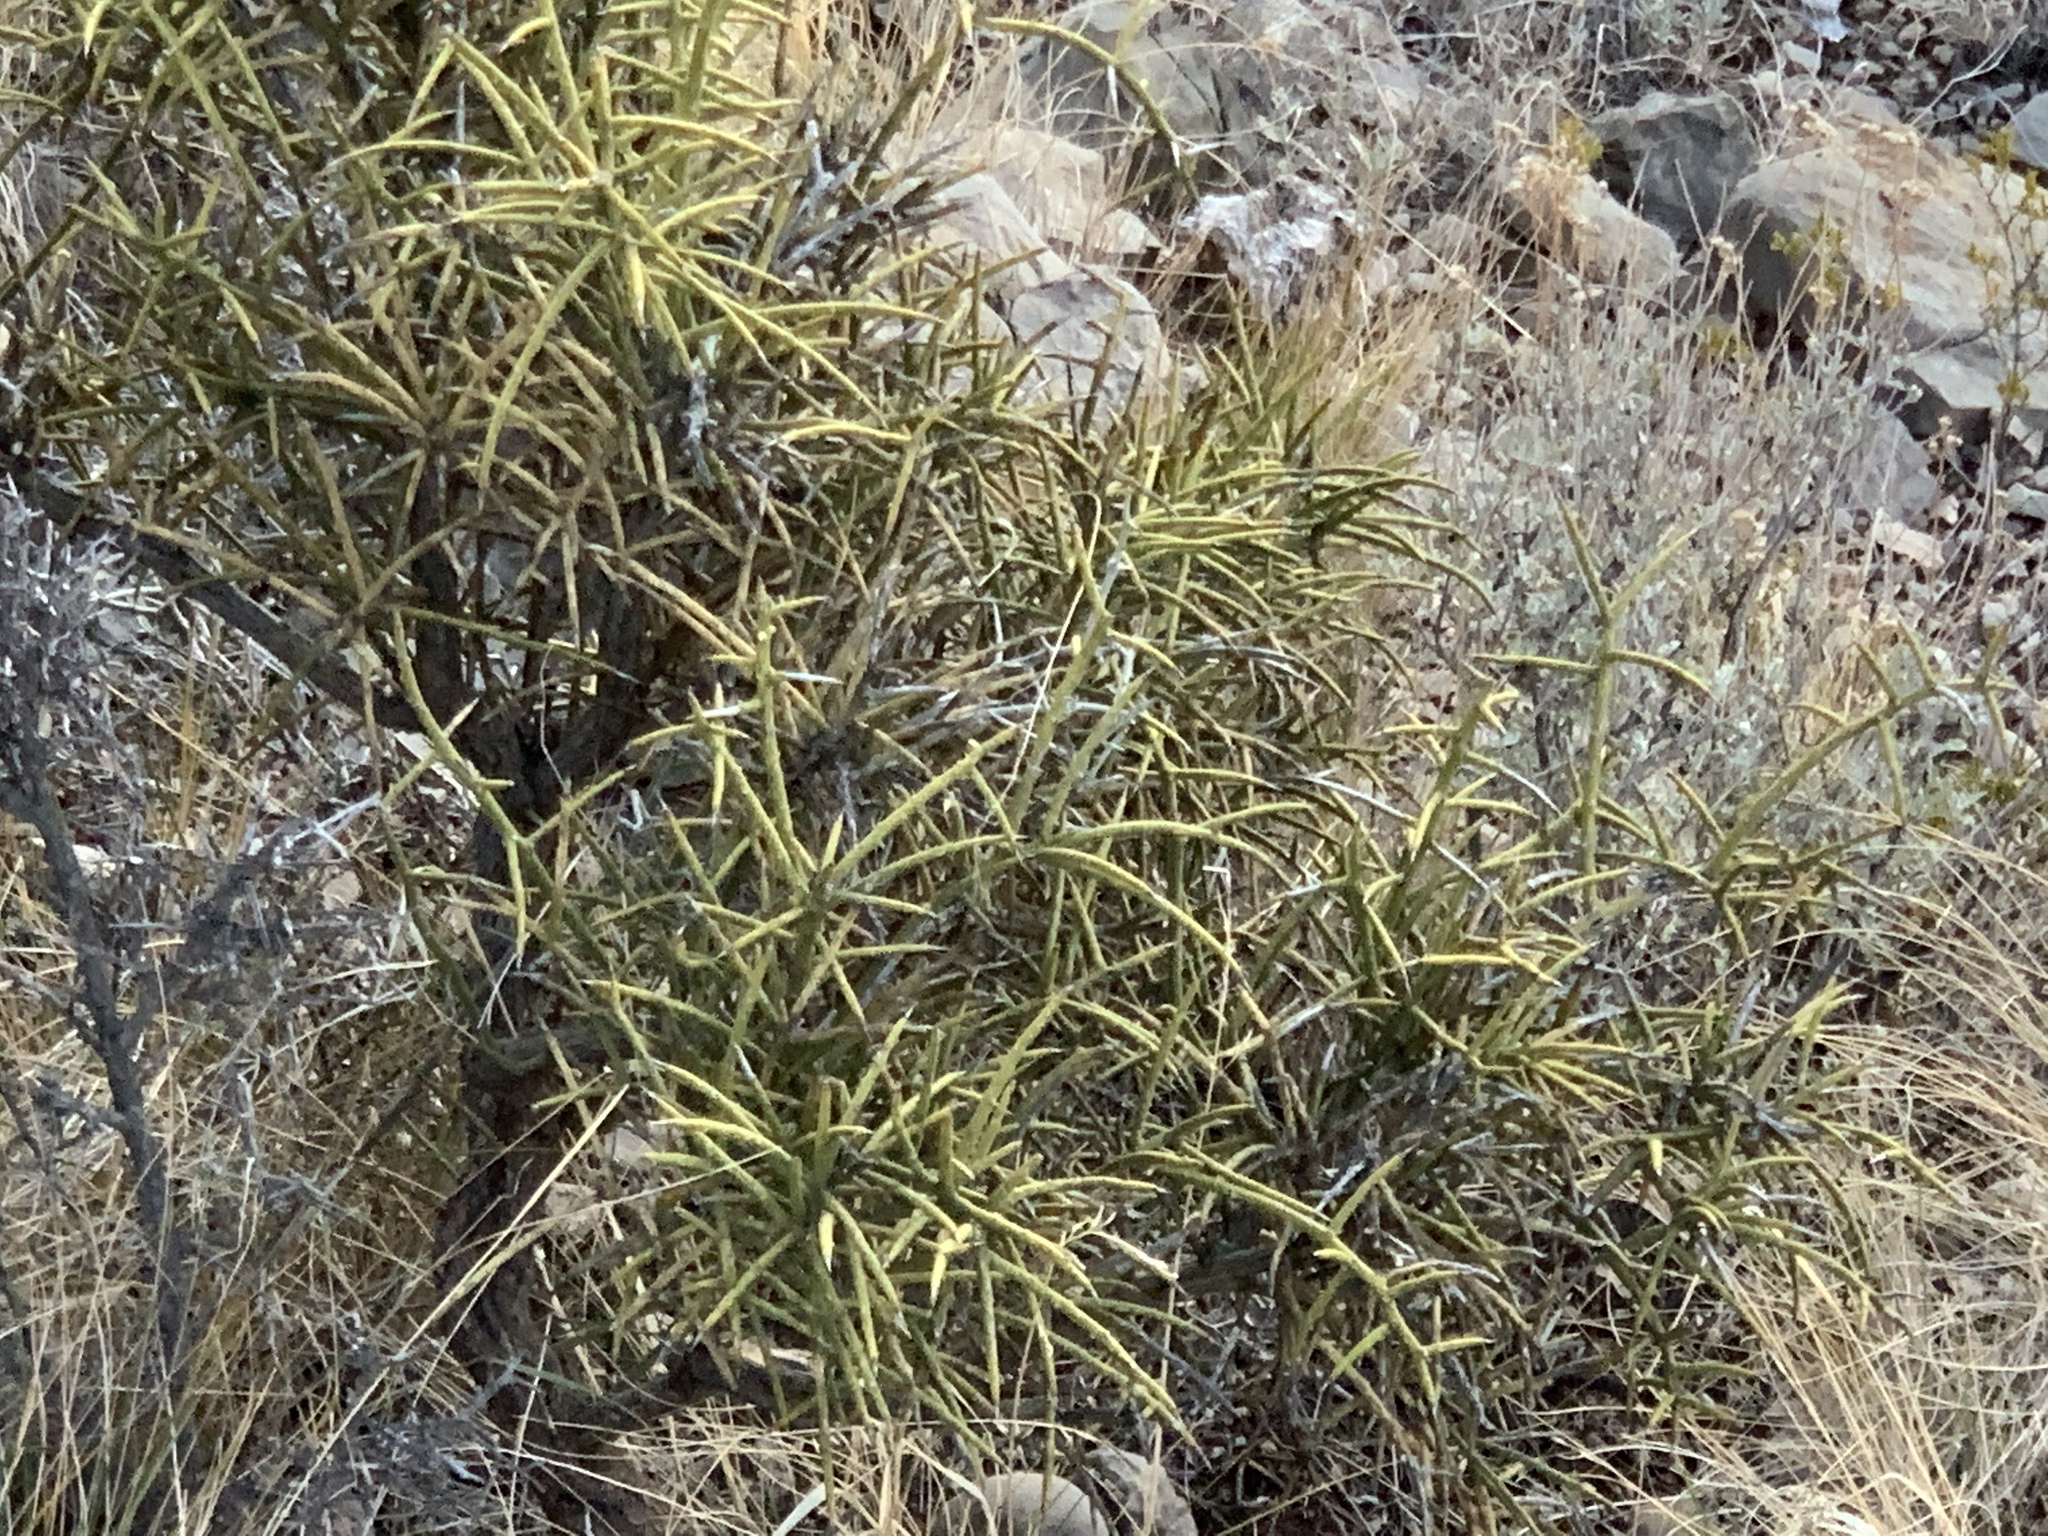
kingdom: Plantae
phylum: Tracheophyta
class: Magnoliopsida
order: Brassicales
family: Koeberliniaceae
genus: Koeberlinia
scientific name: Koeberlinia spinosa
